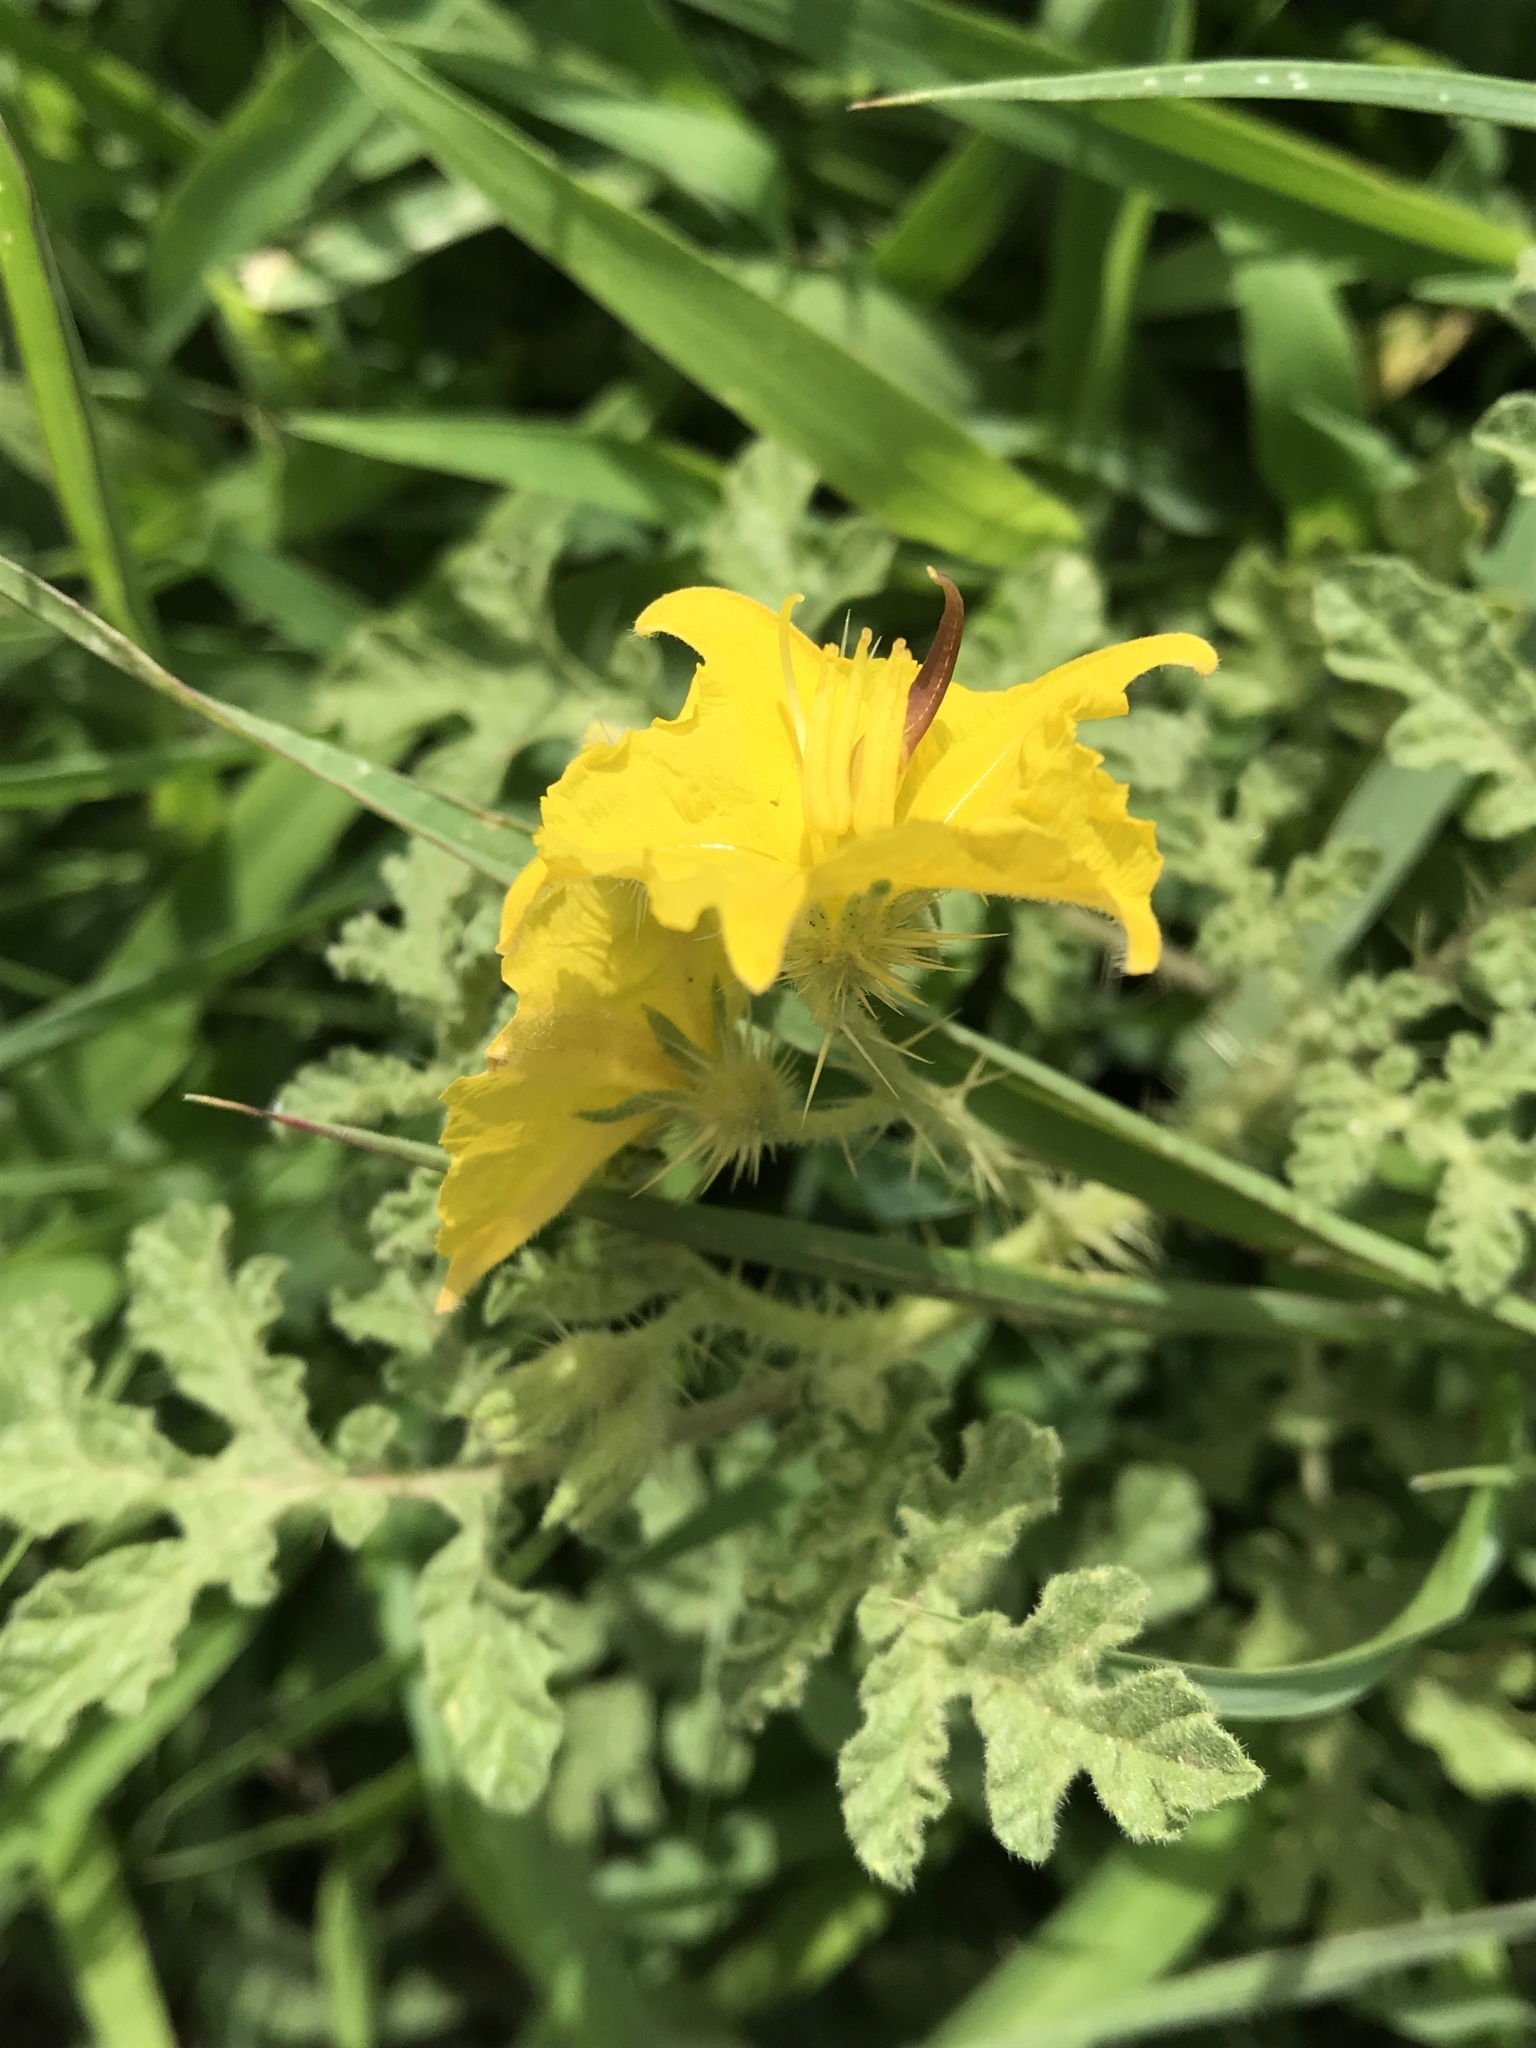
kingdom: Plantae
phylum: Tracheophyta
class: Magnoliopsida
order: Solanales
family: Solanaceae
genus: Solanum
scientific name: Solanum angustifolium
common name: Buffalobur nightshade
